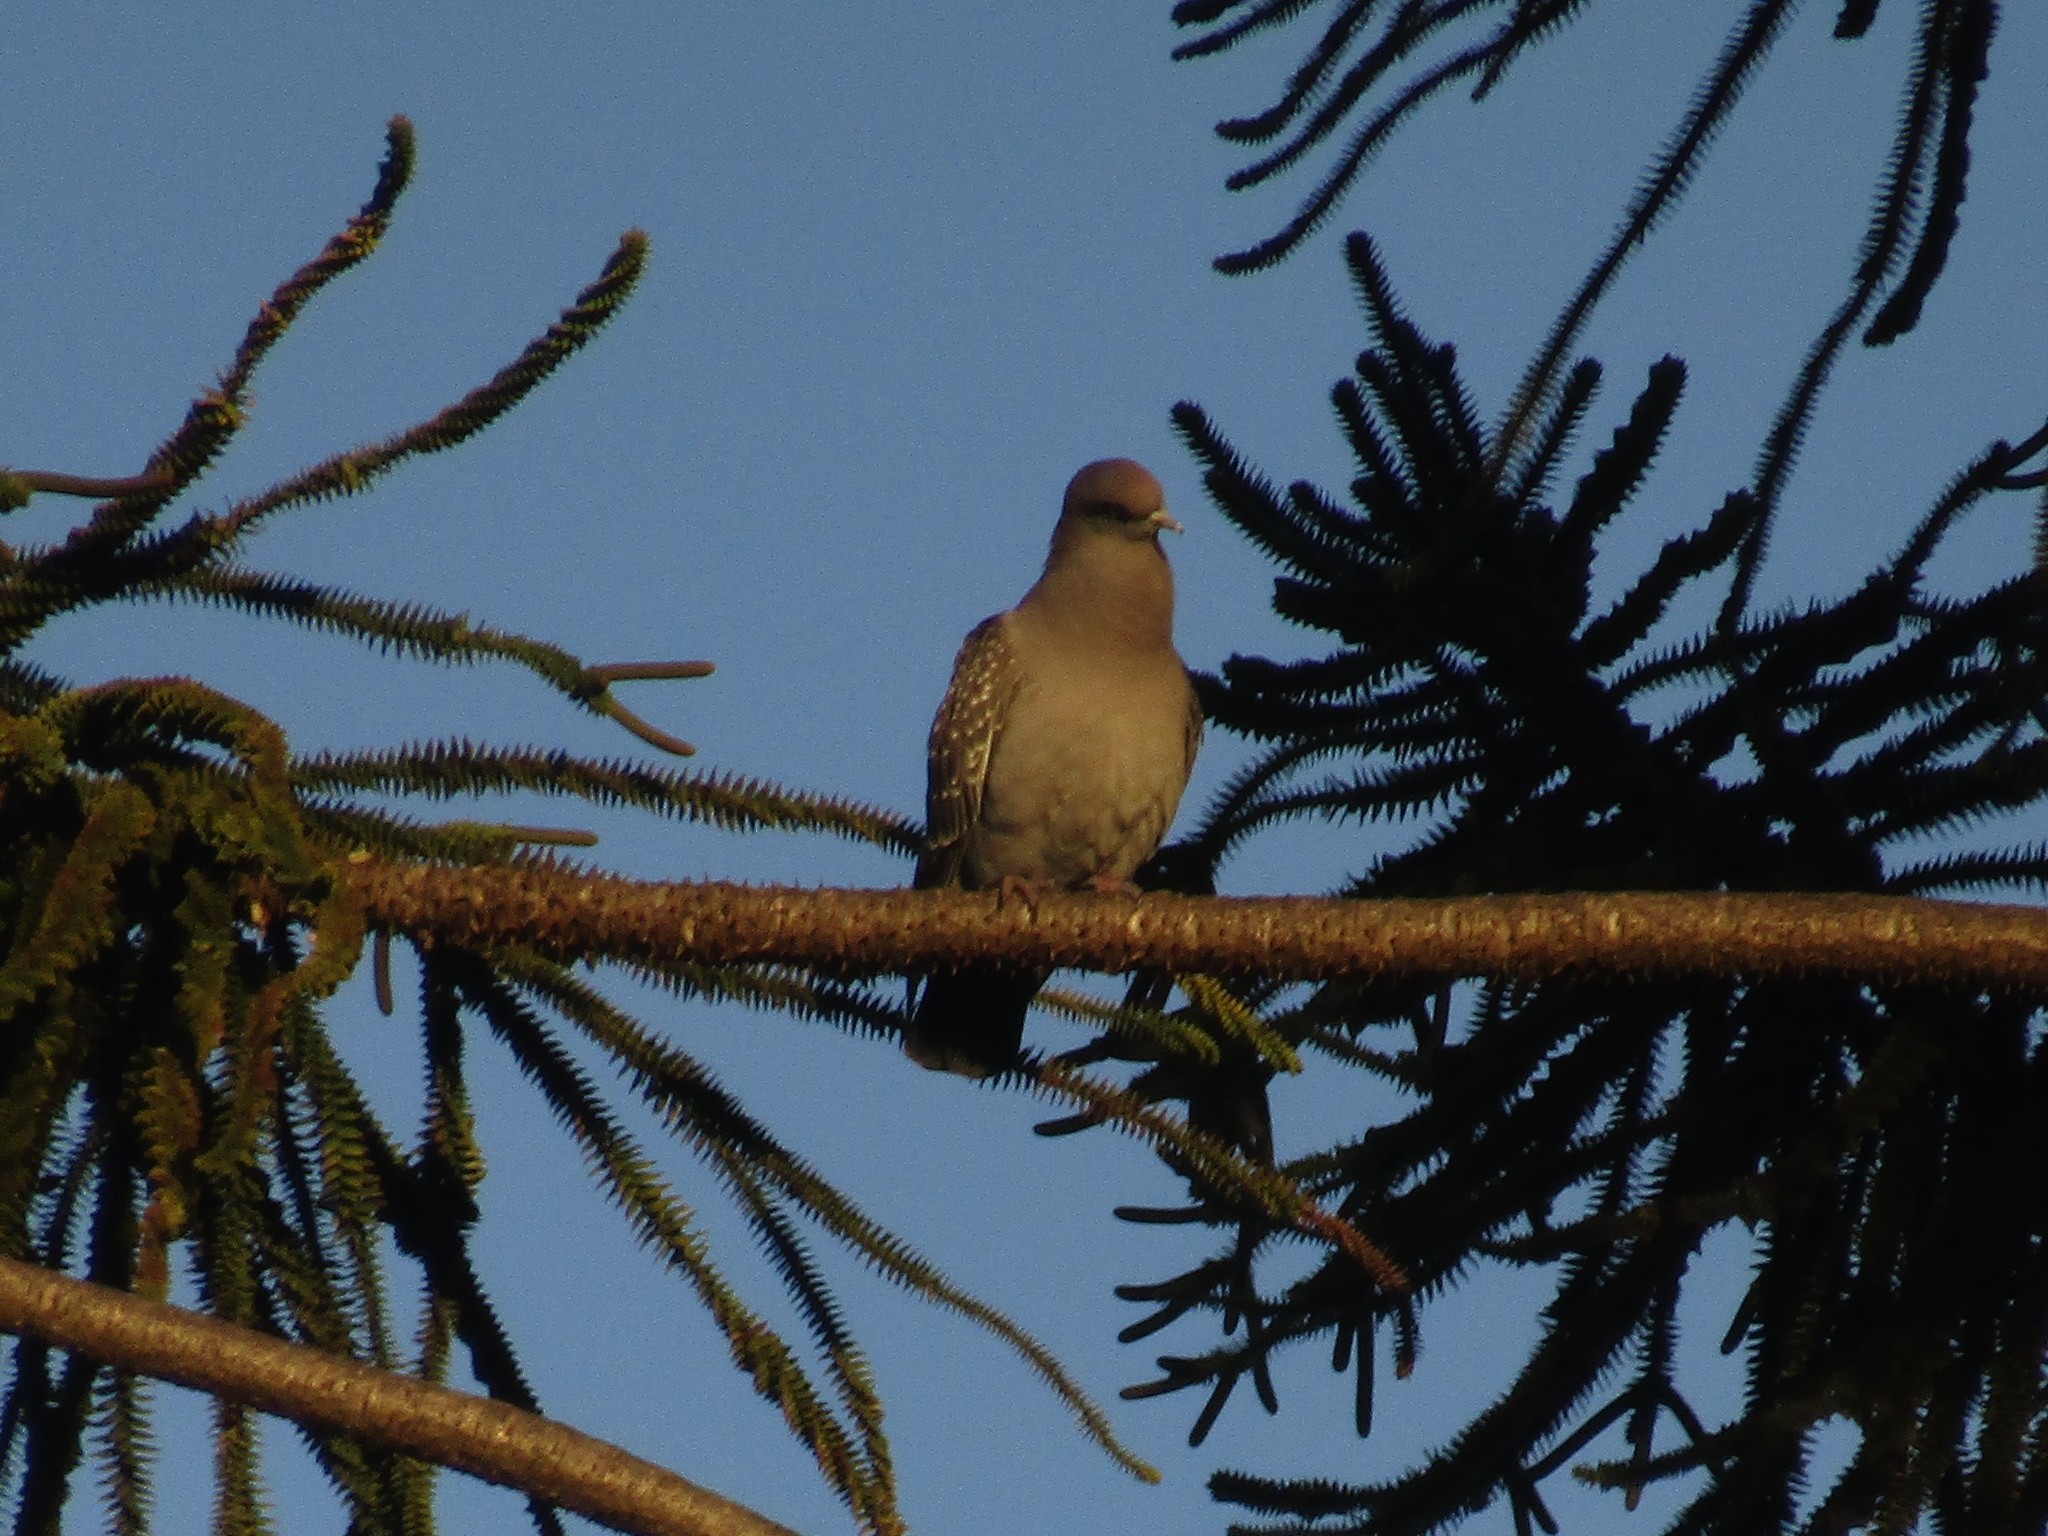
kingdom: Animalia
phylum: Chordata
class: Aves
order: Columbiformes
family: Columbidae
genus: Patagioenas
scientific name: Patagioenas maculosa
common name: Spot-winged pigeon
